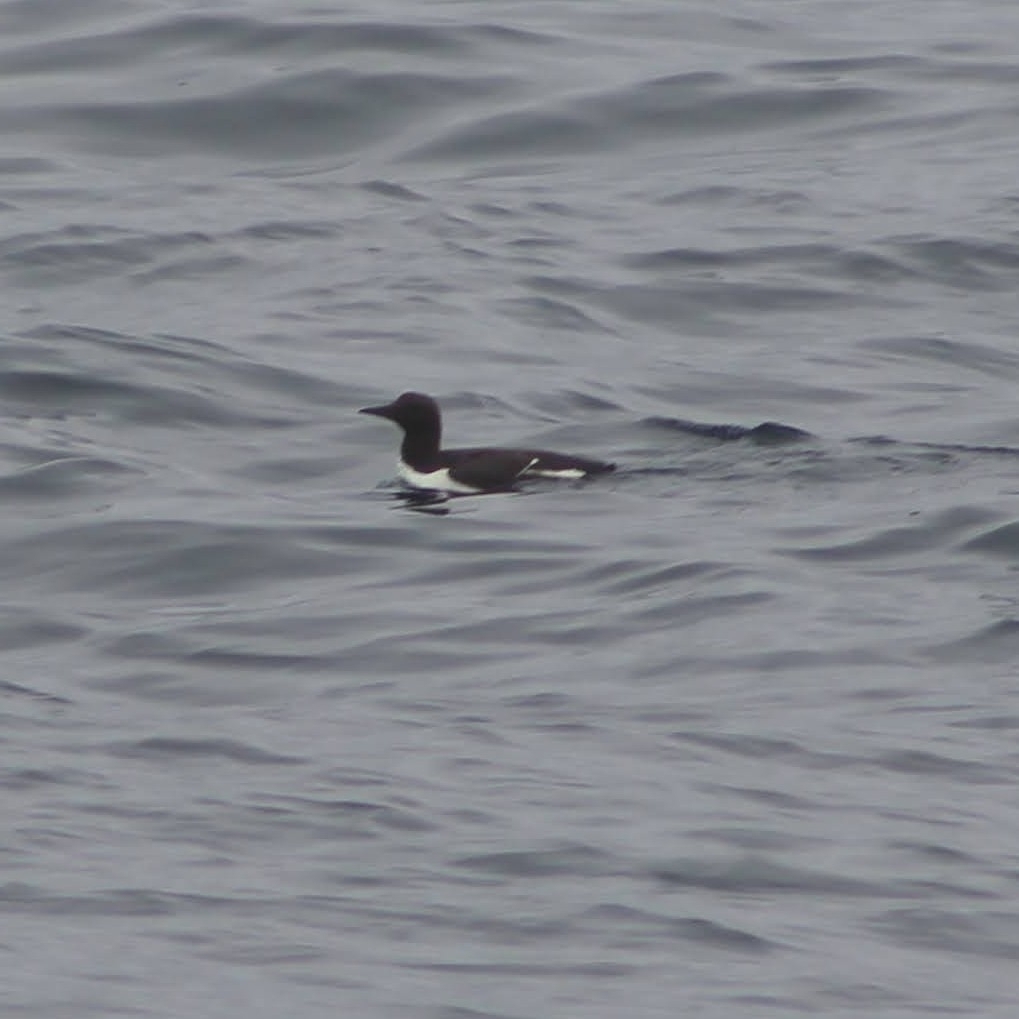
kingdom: Animalia
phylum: Chordata
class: Aves
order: Charadriiformes
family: Alcidae
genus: Uria
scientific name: Uria aalge
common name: Common murre
